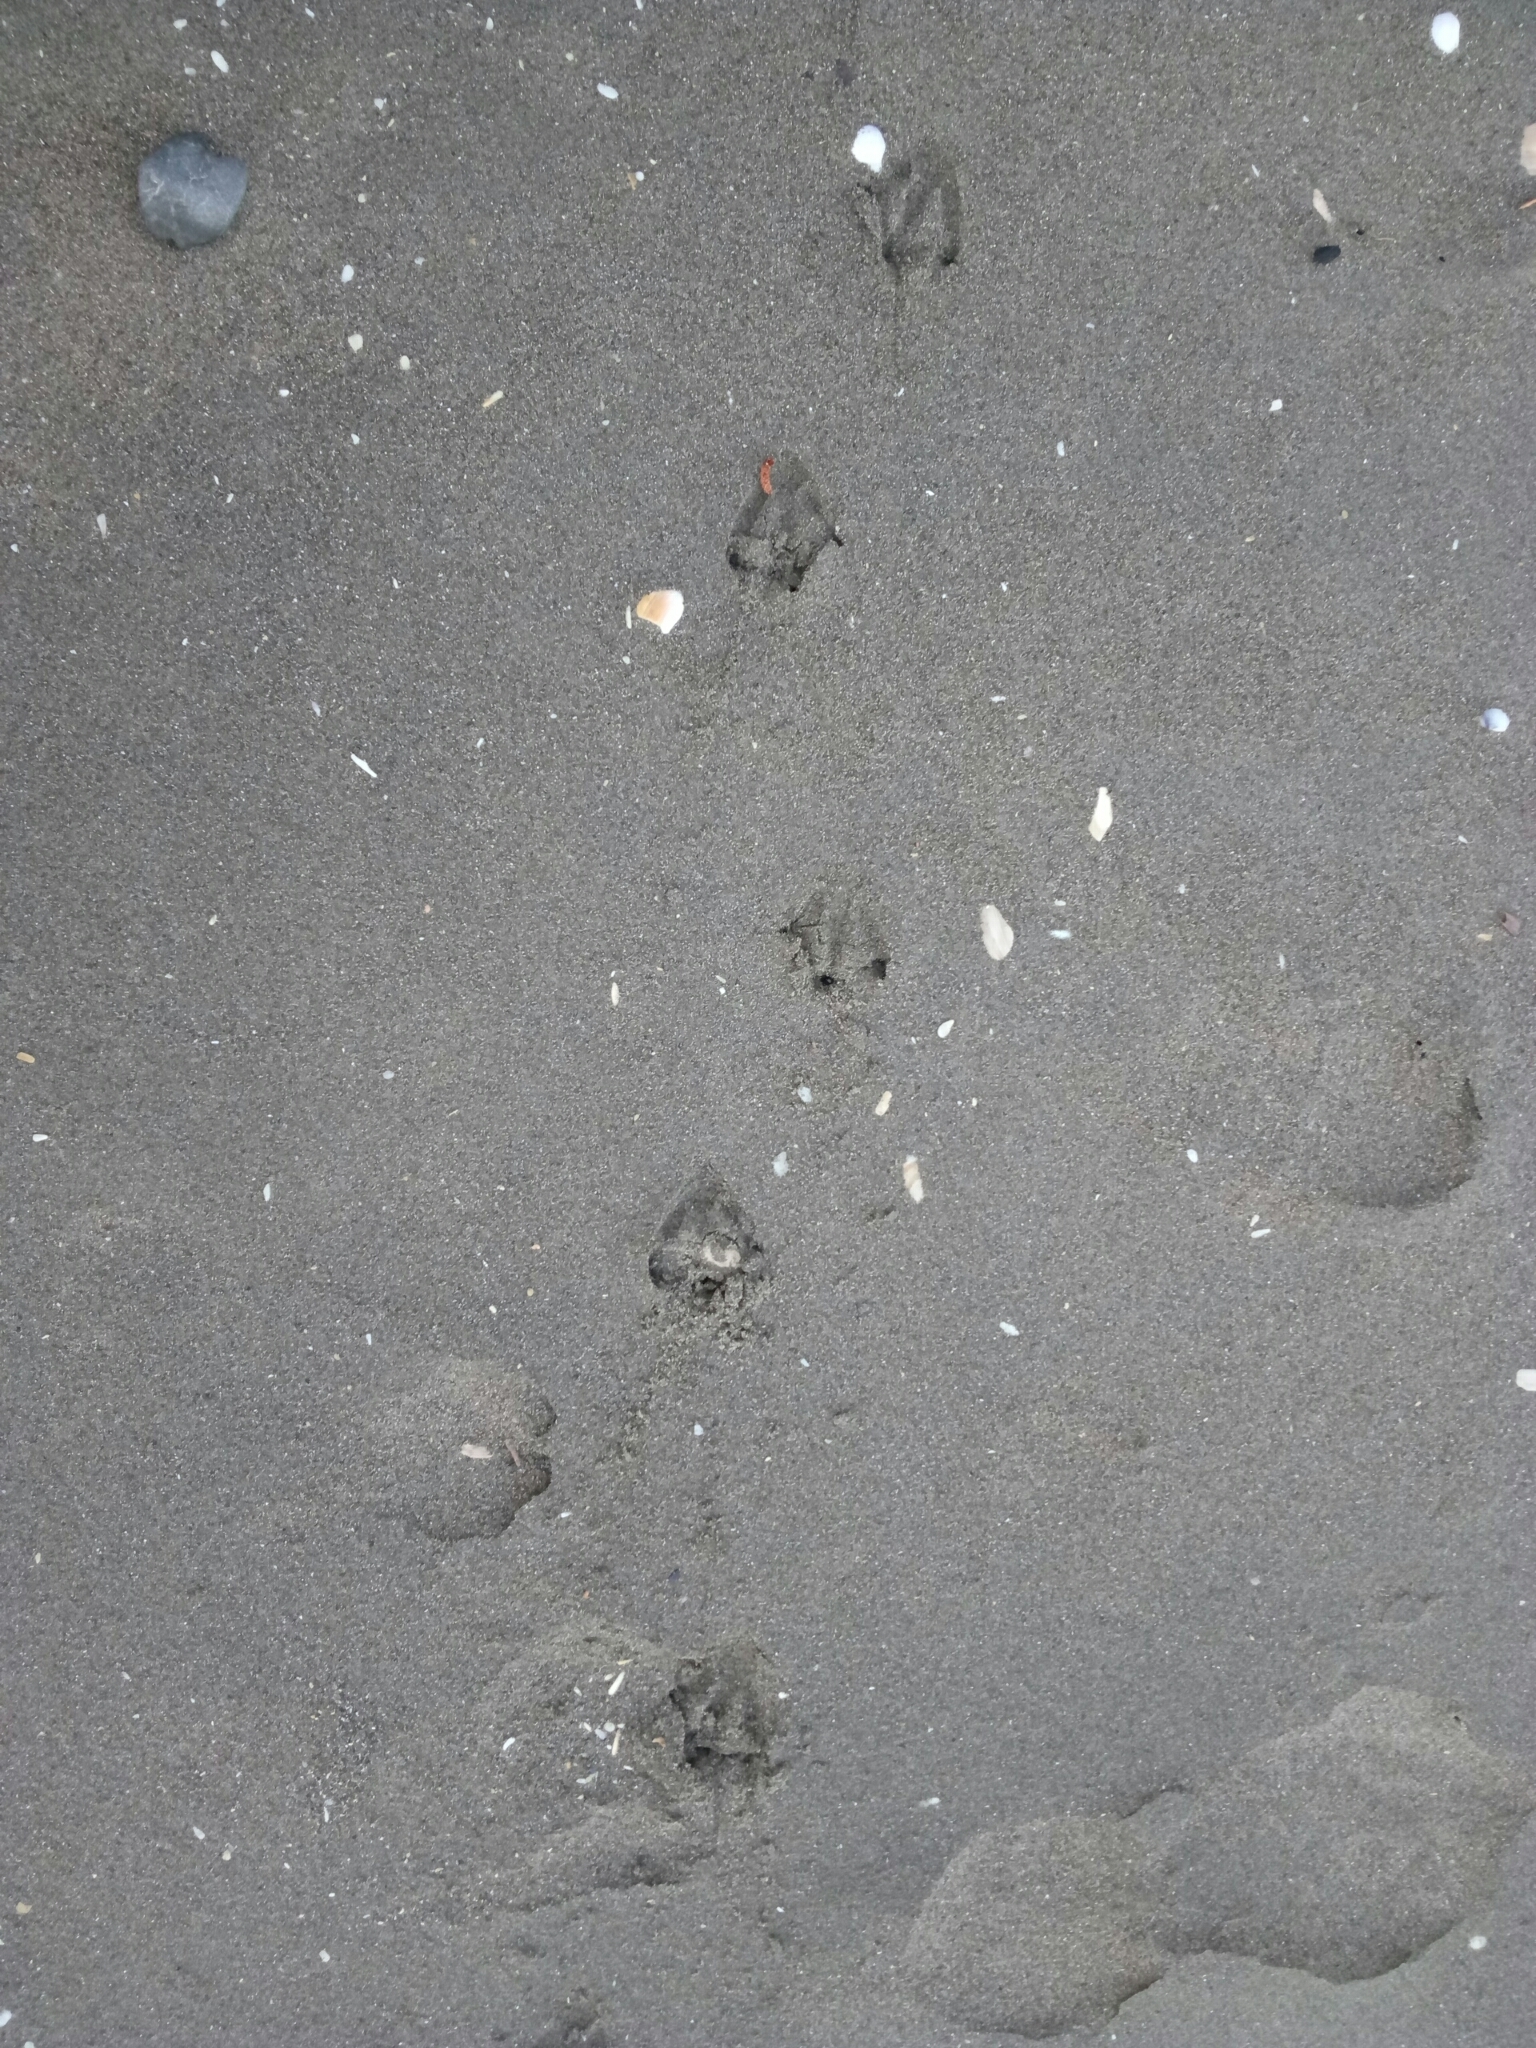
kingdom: Animalia
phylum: Chordata
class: Aves
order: Sphenisciformes
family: Spheniscidae
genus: Eudyptula
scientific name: Eudyptula minor
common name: Little penguin
